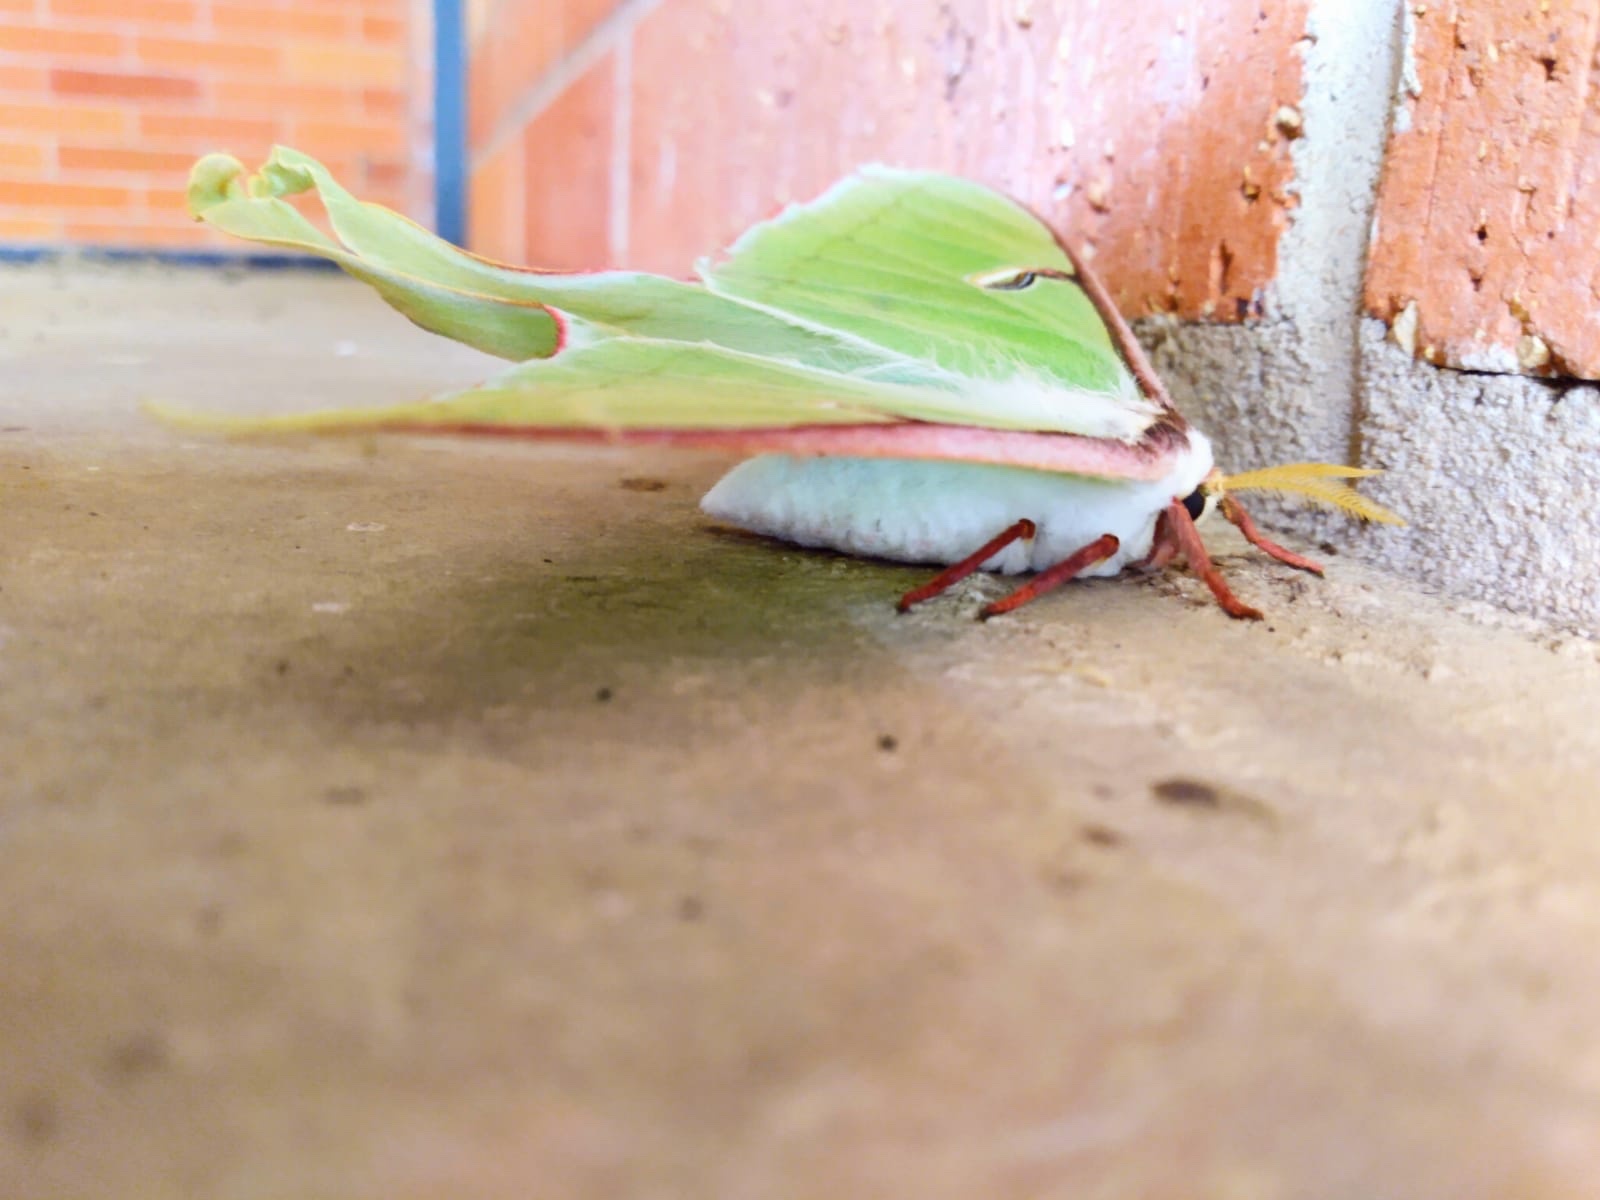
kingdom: Animalia
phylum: Arthropoda
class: Insecta
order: Lepidoptera
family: Saturniidae
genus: Actias
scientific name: Actias luna
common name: Luna moth
